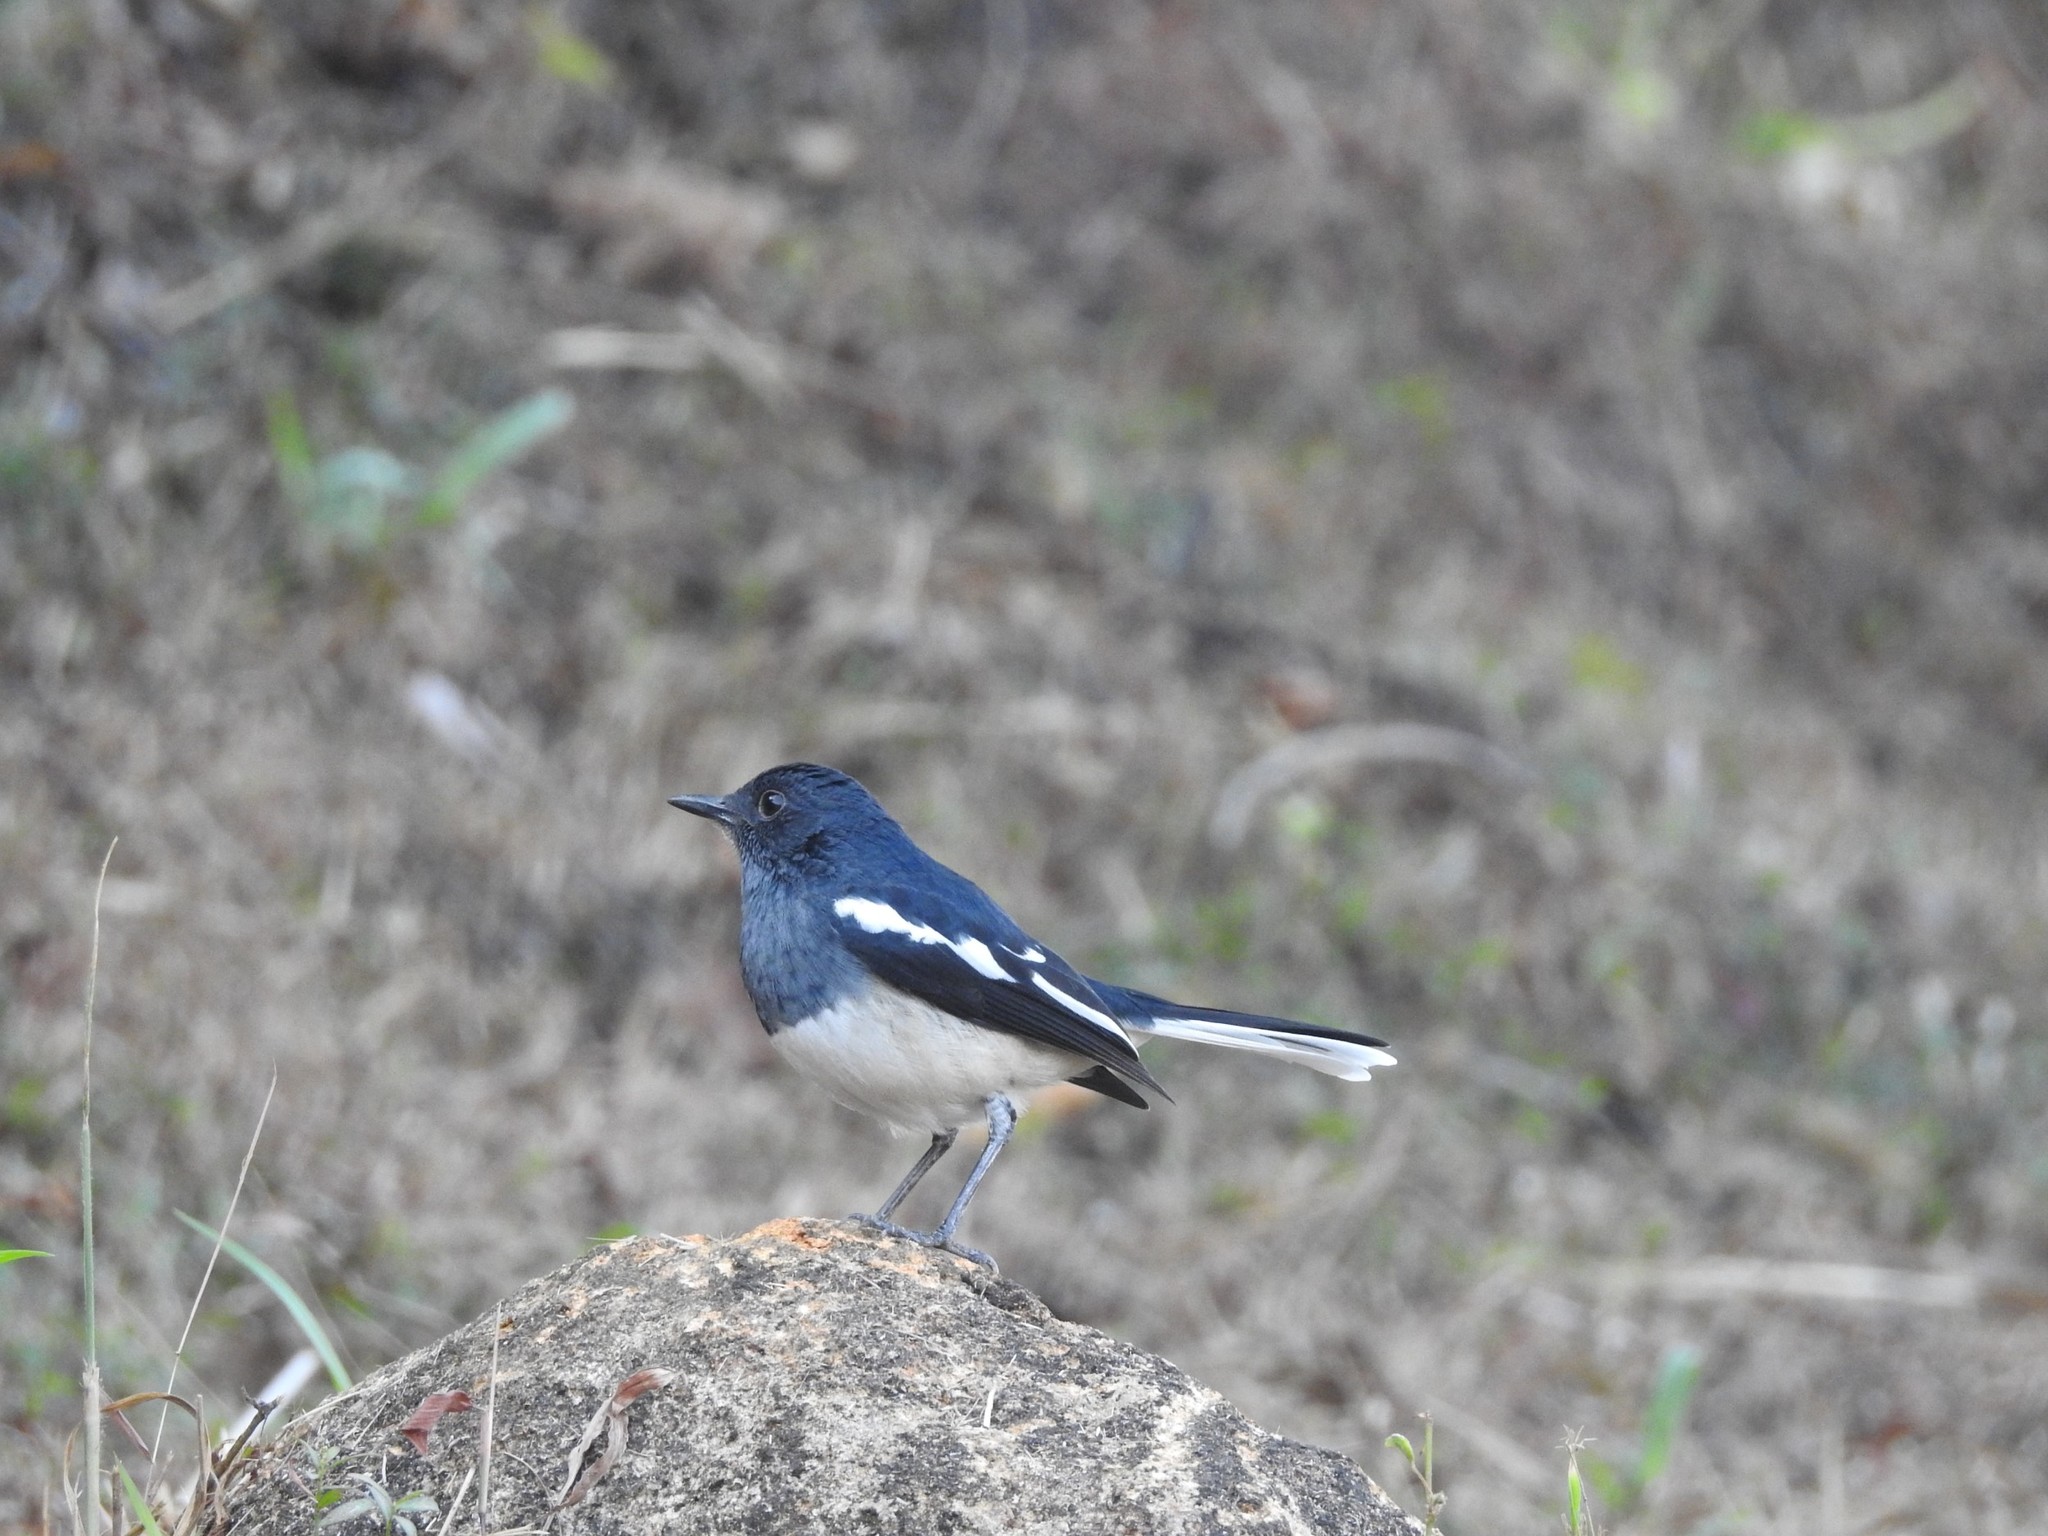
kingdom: Animalia
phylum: Chordata
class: Aves
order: Passeriformes
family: Muscicapidae
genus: Copsychus
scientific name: Copsychus saularis
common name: Oriental magpie-robin
